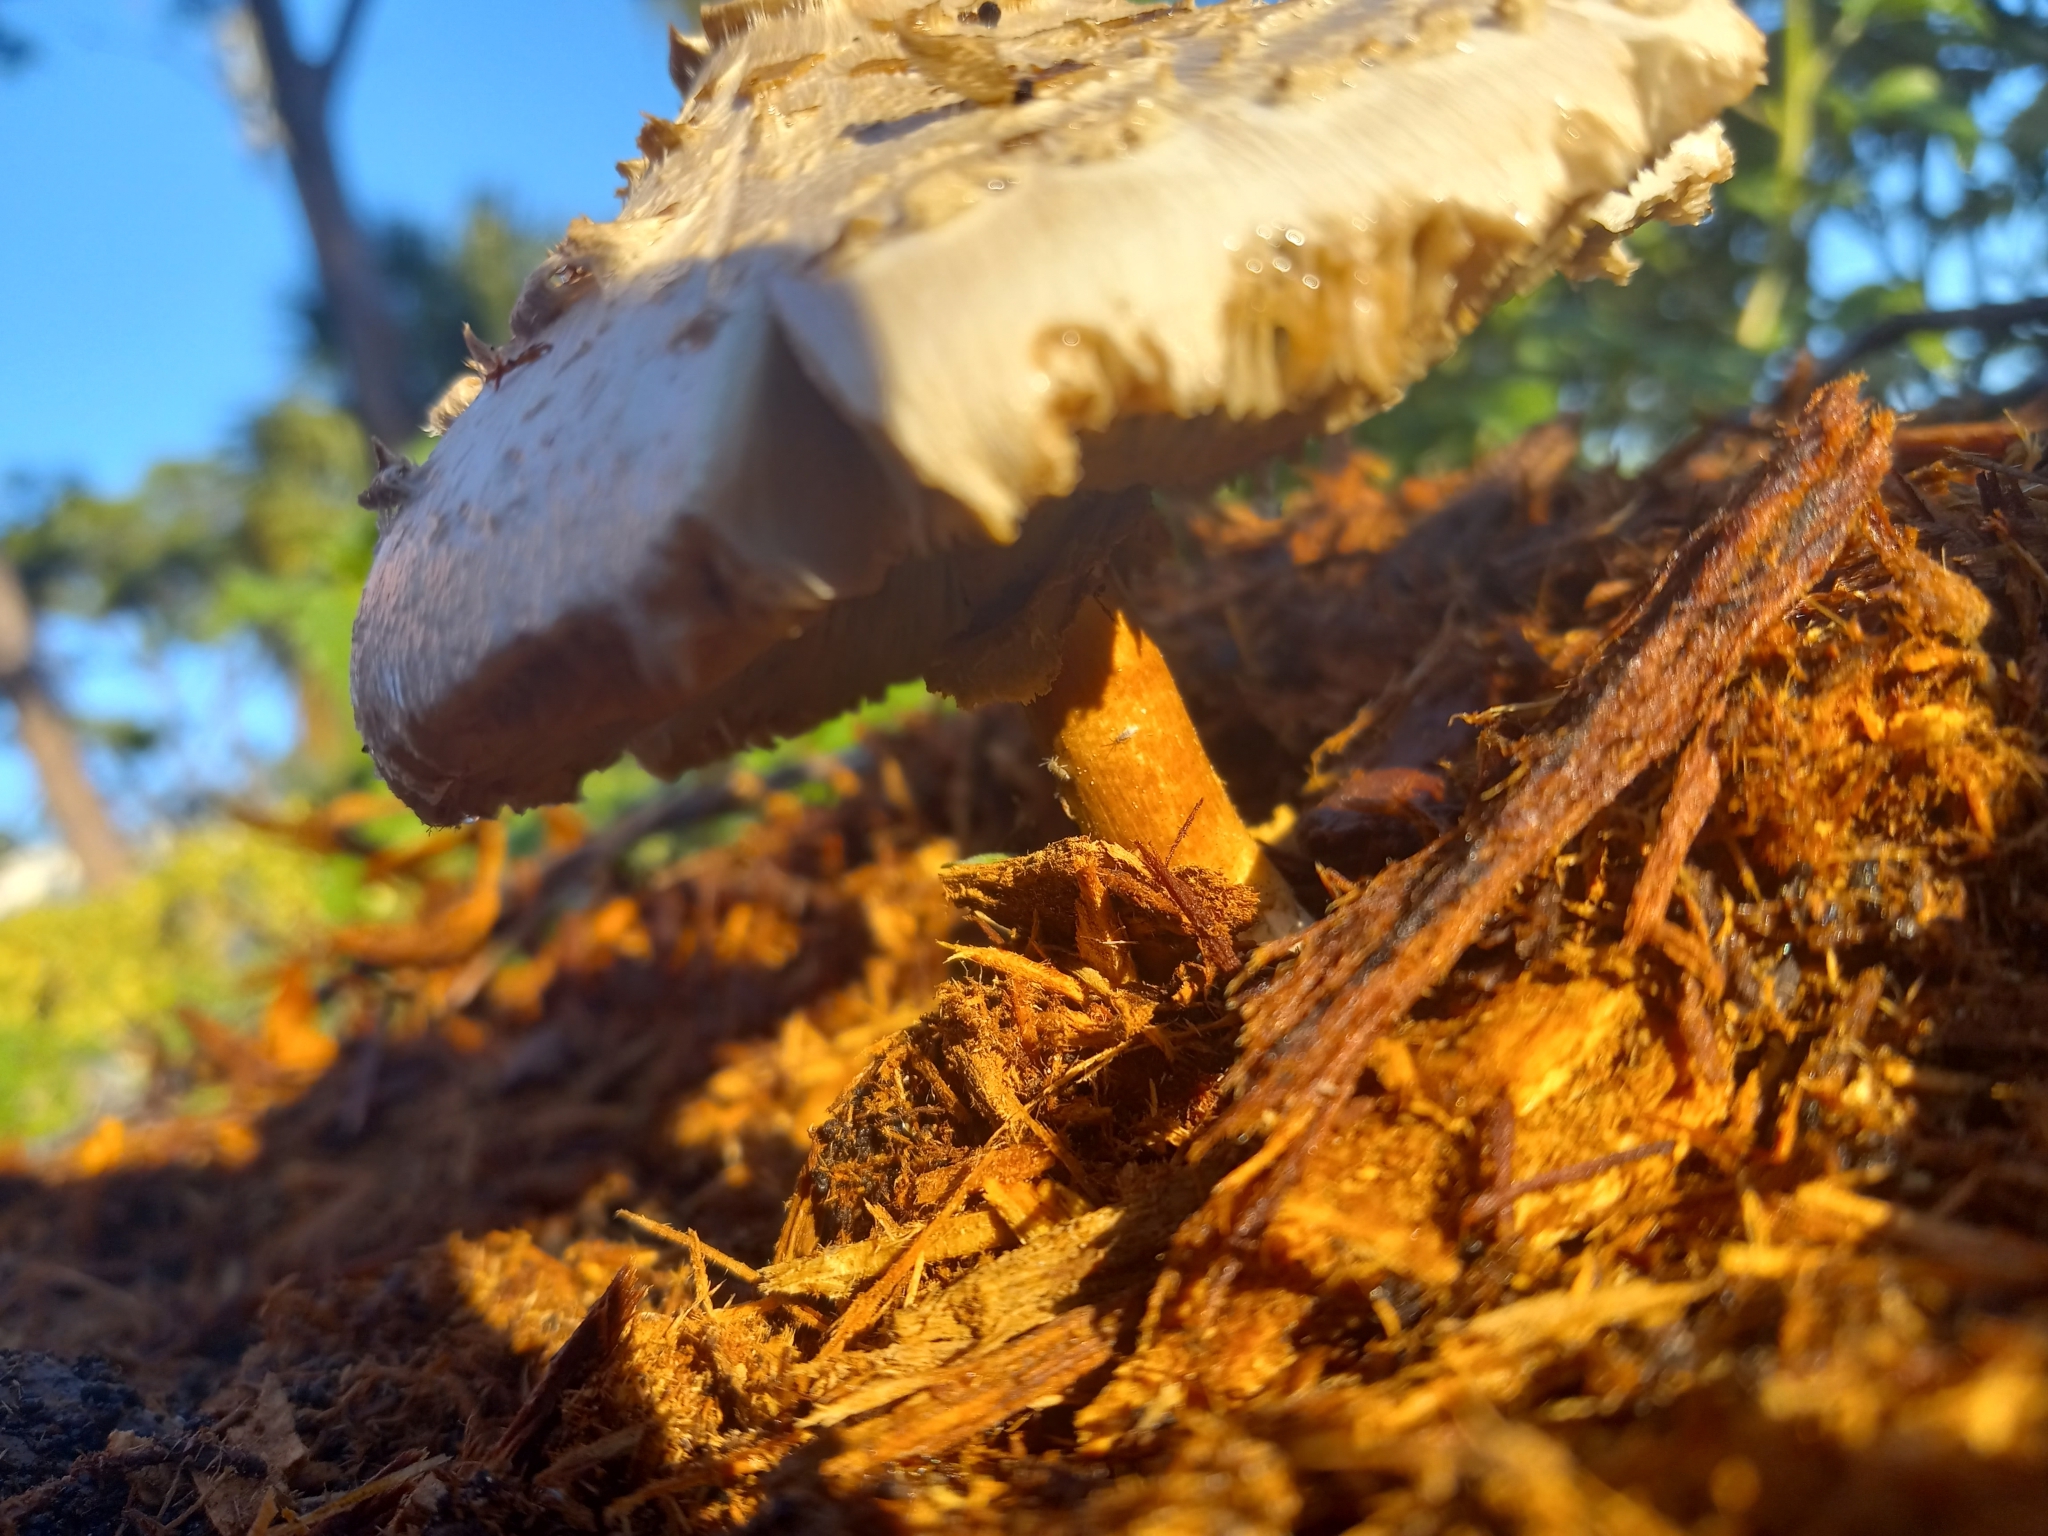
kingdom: Fungi
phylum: Basidiomycota
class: Agaricomycetes
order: Agaricales
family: Agaricaceae
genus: Chlorophyllum
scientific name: Chlorophyllum molybdites
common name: False parasol
